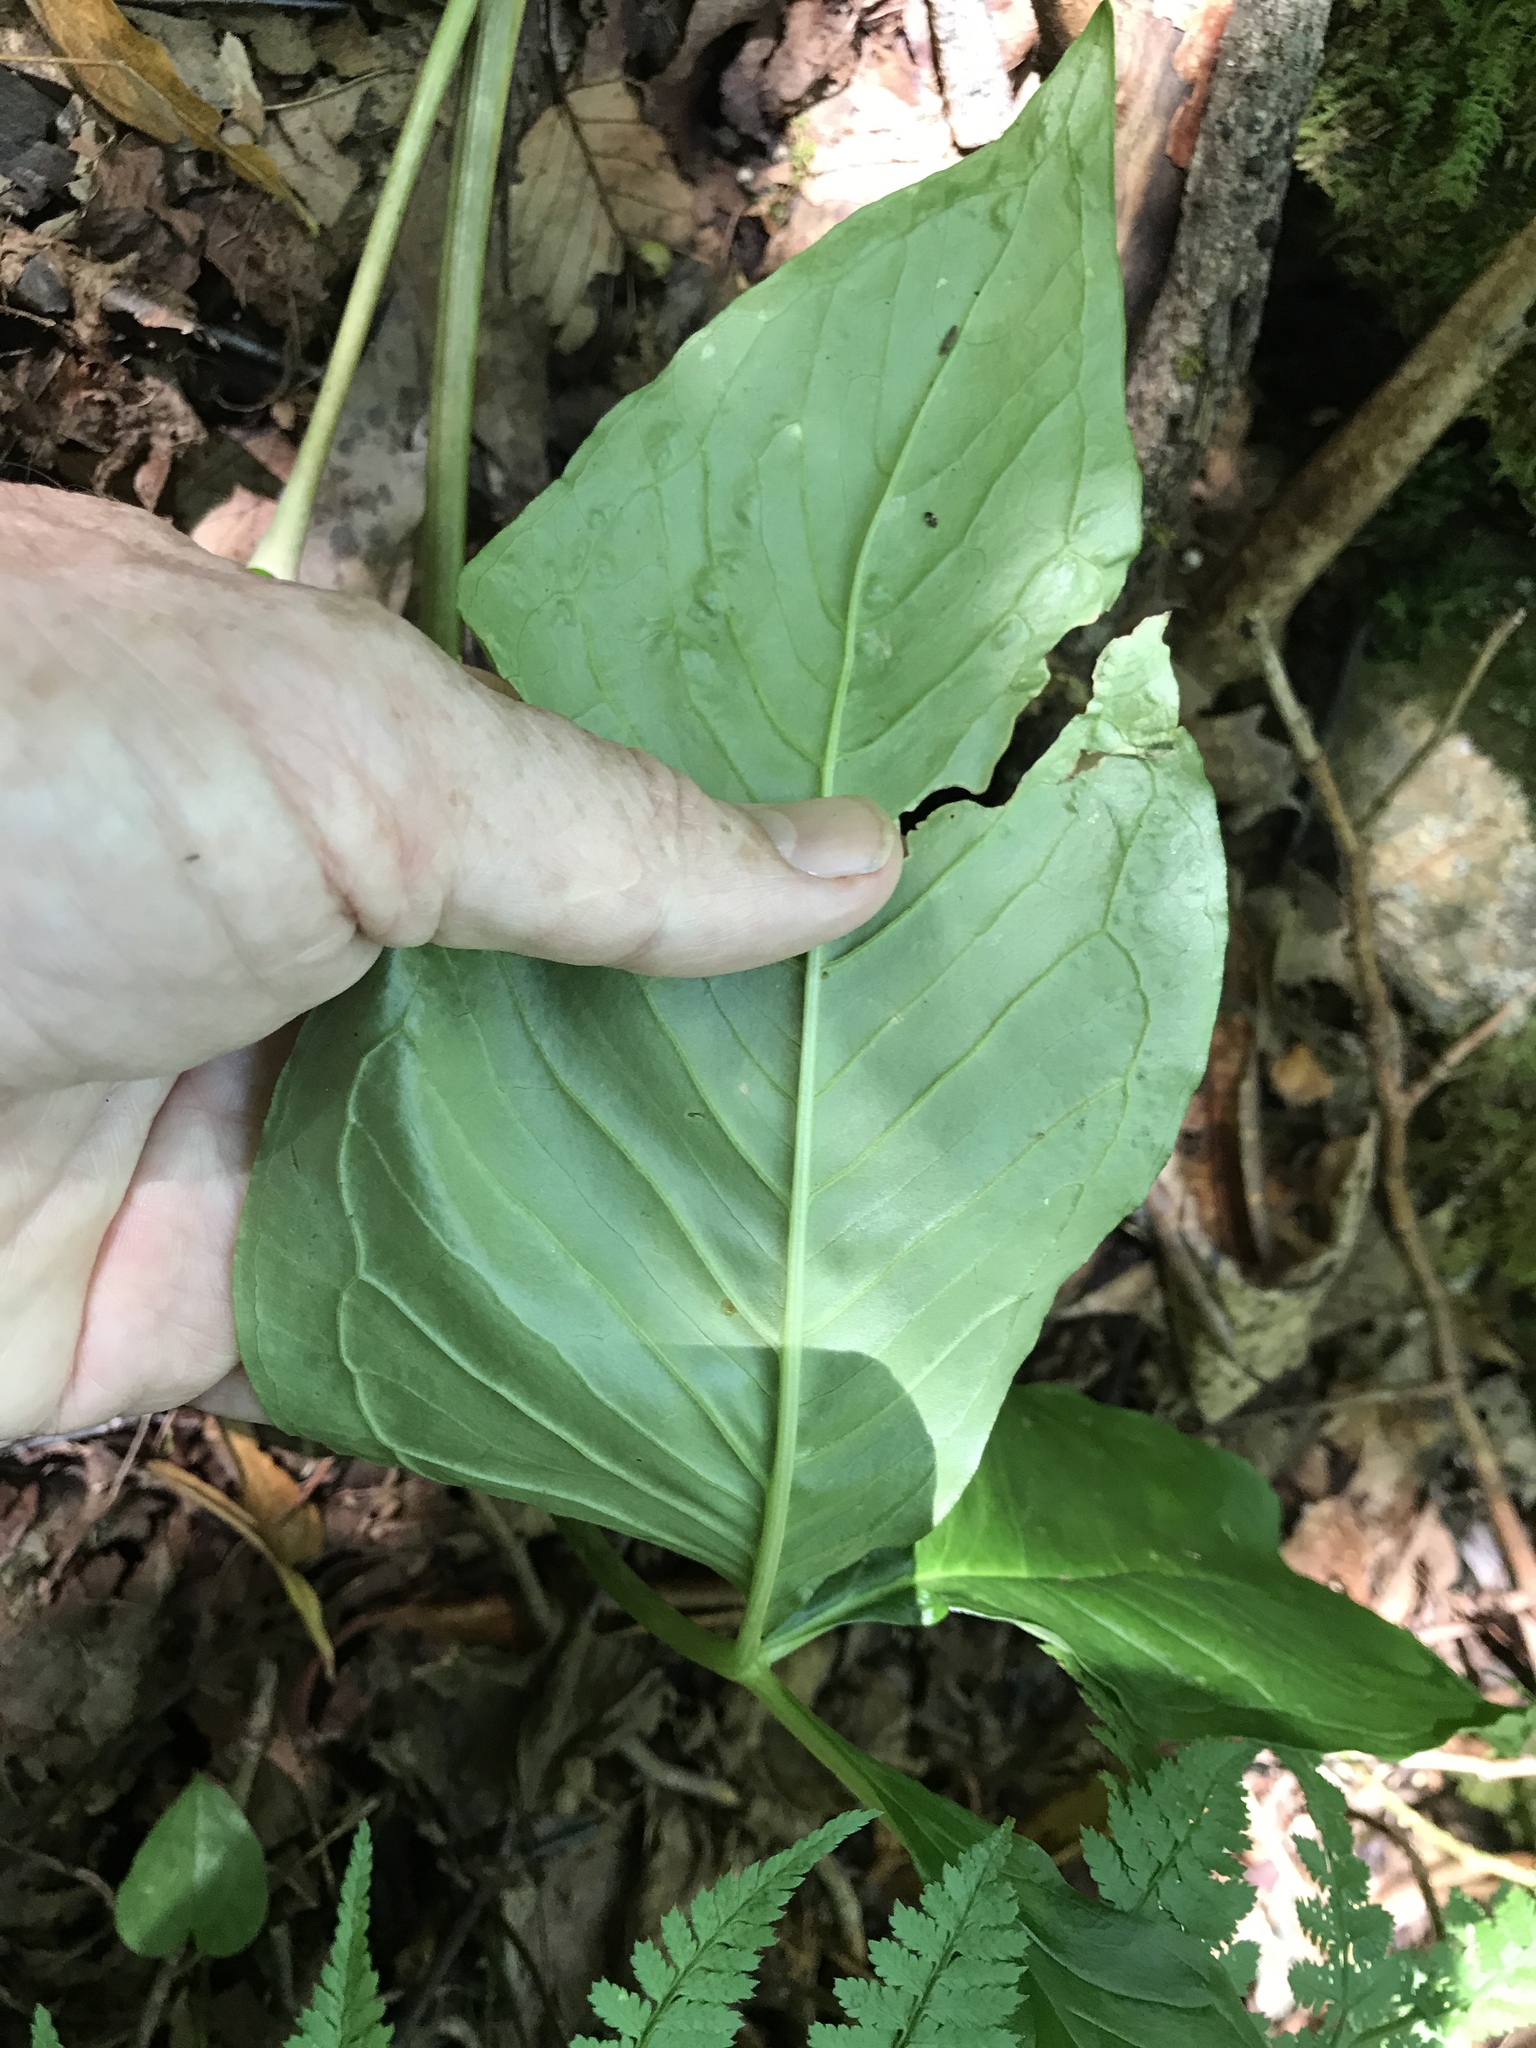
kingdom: Plantae
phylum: Tracheophyta
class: Liliopsida
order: Alismatales
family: Araceae
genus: Arisaema
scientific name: Arisaema pusillum
